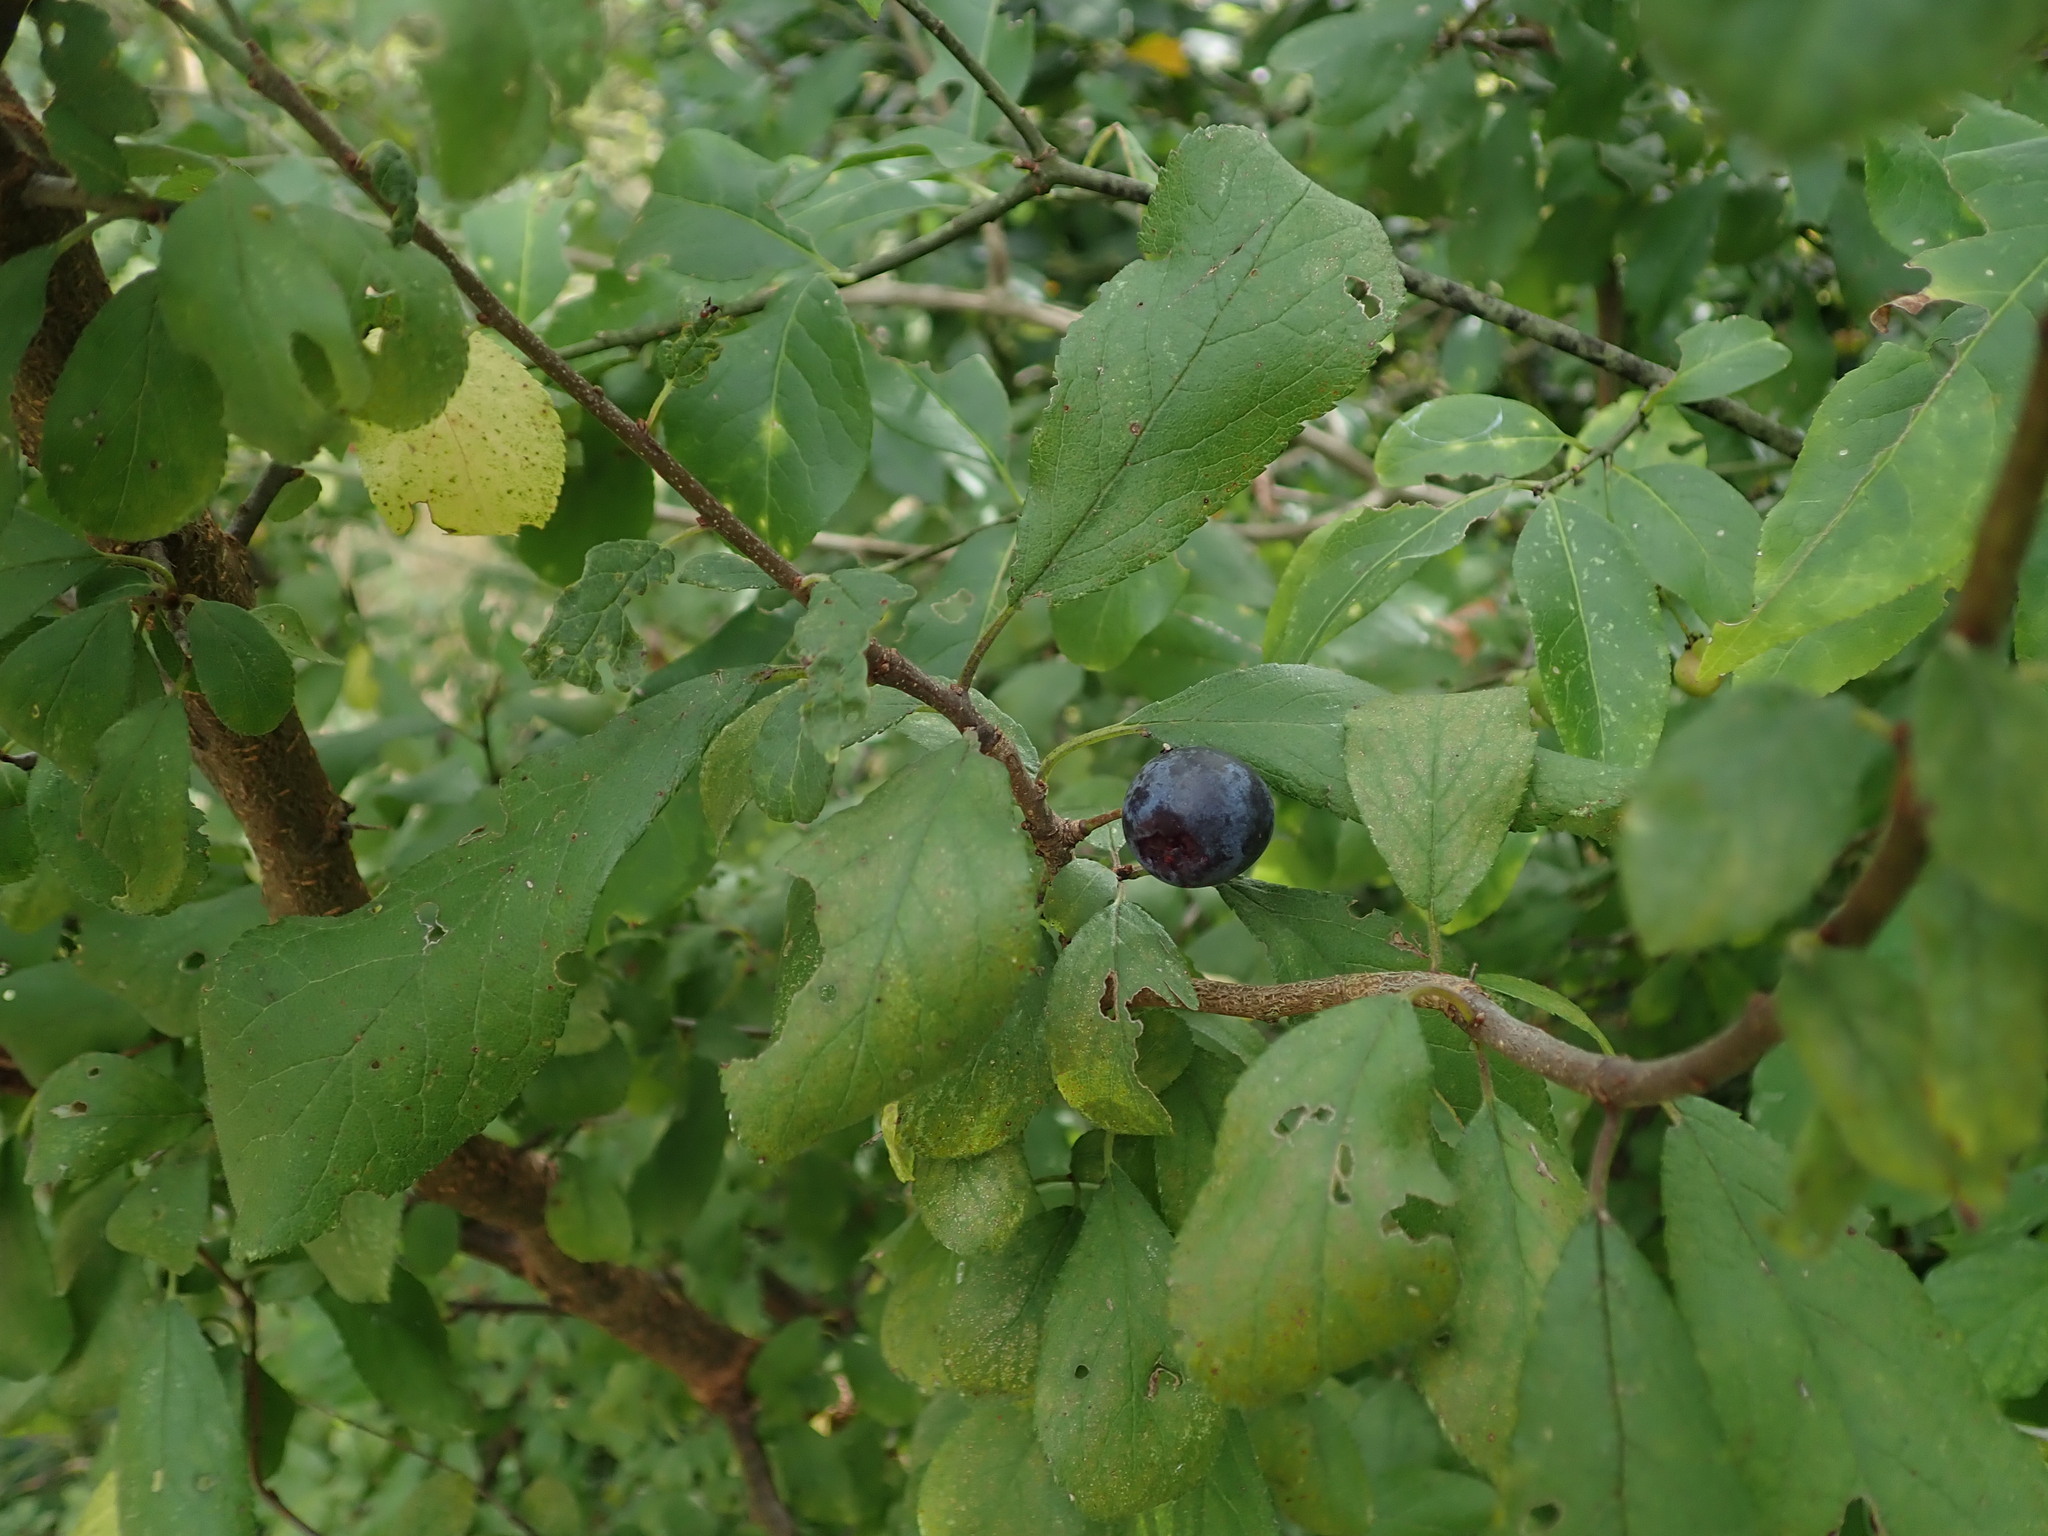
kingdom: Plantae
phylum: Tracheophyta
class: Magnoliopsida
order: Rosales
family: Rosaceae
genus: Prunus
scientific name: Prunus spinosa
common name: Blackthorn
